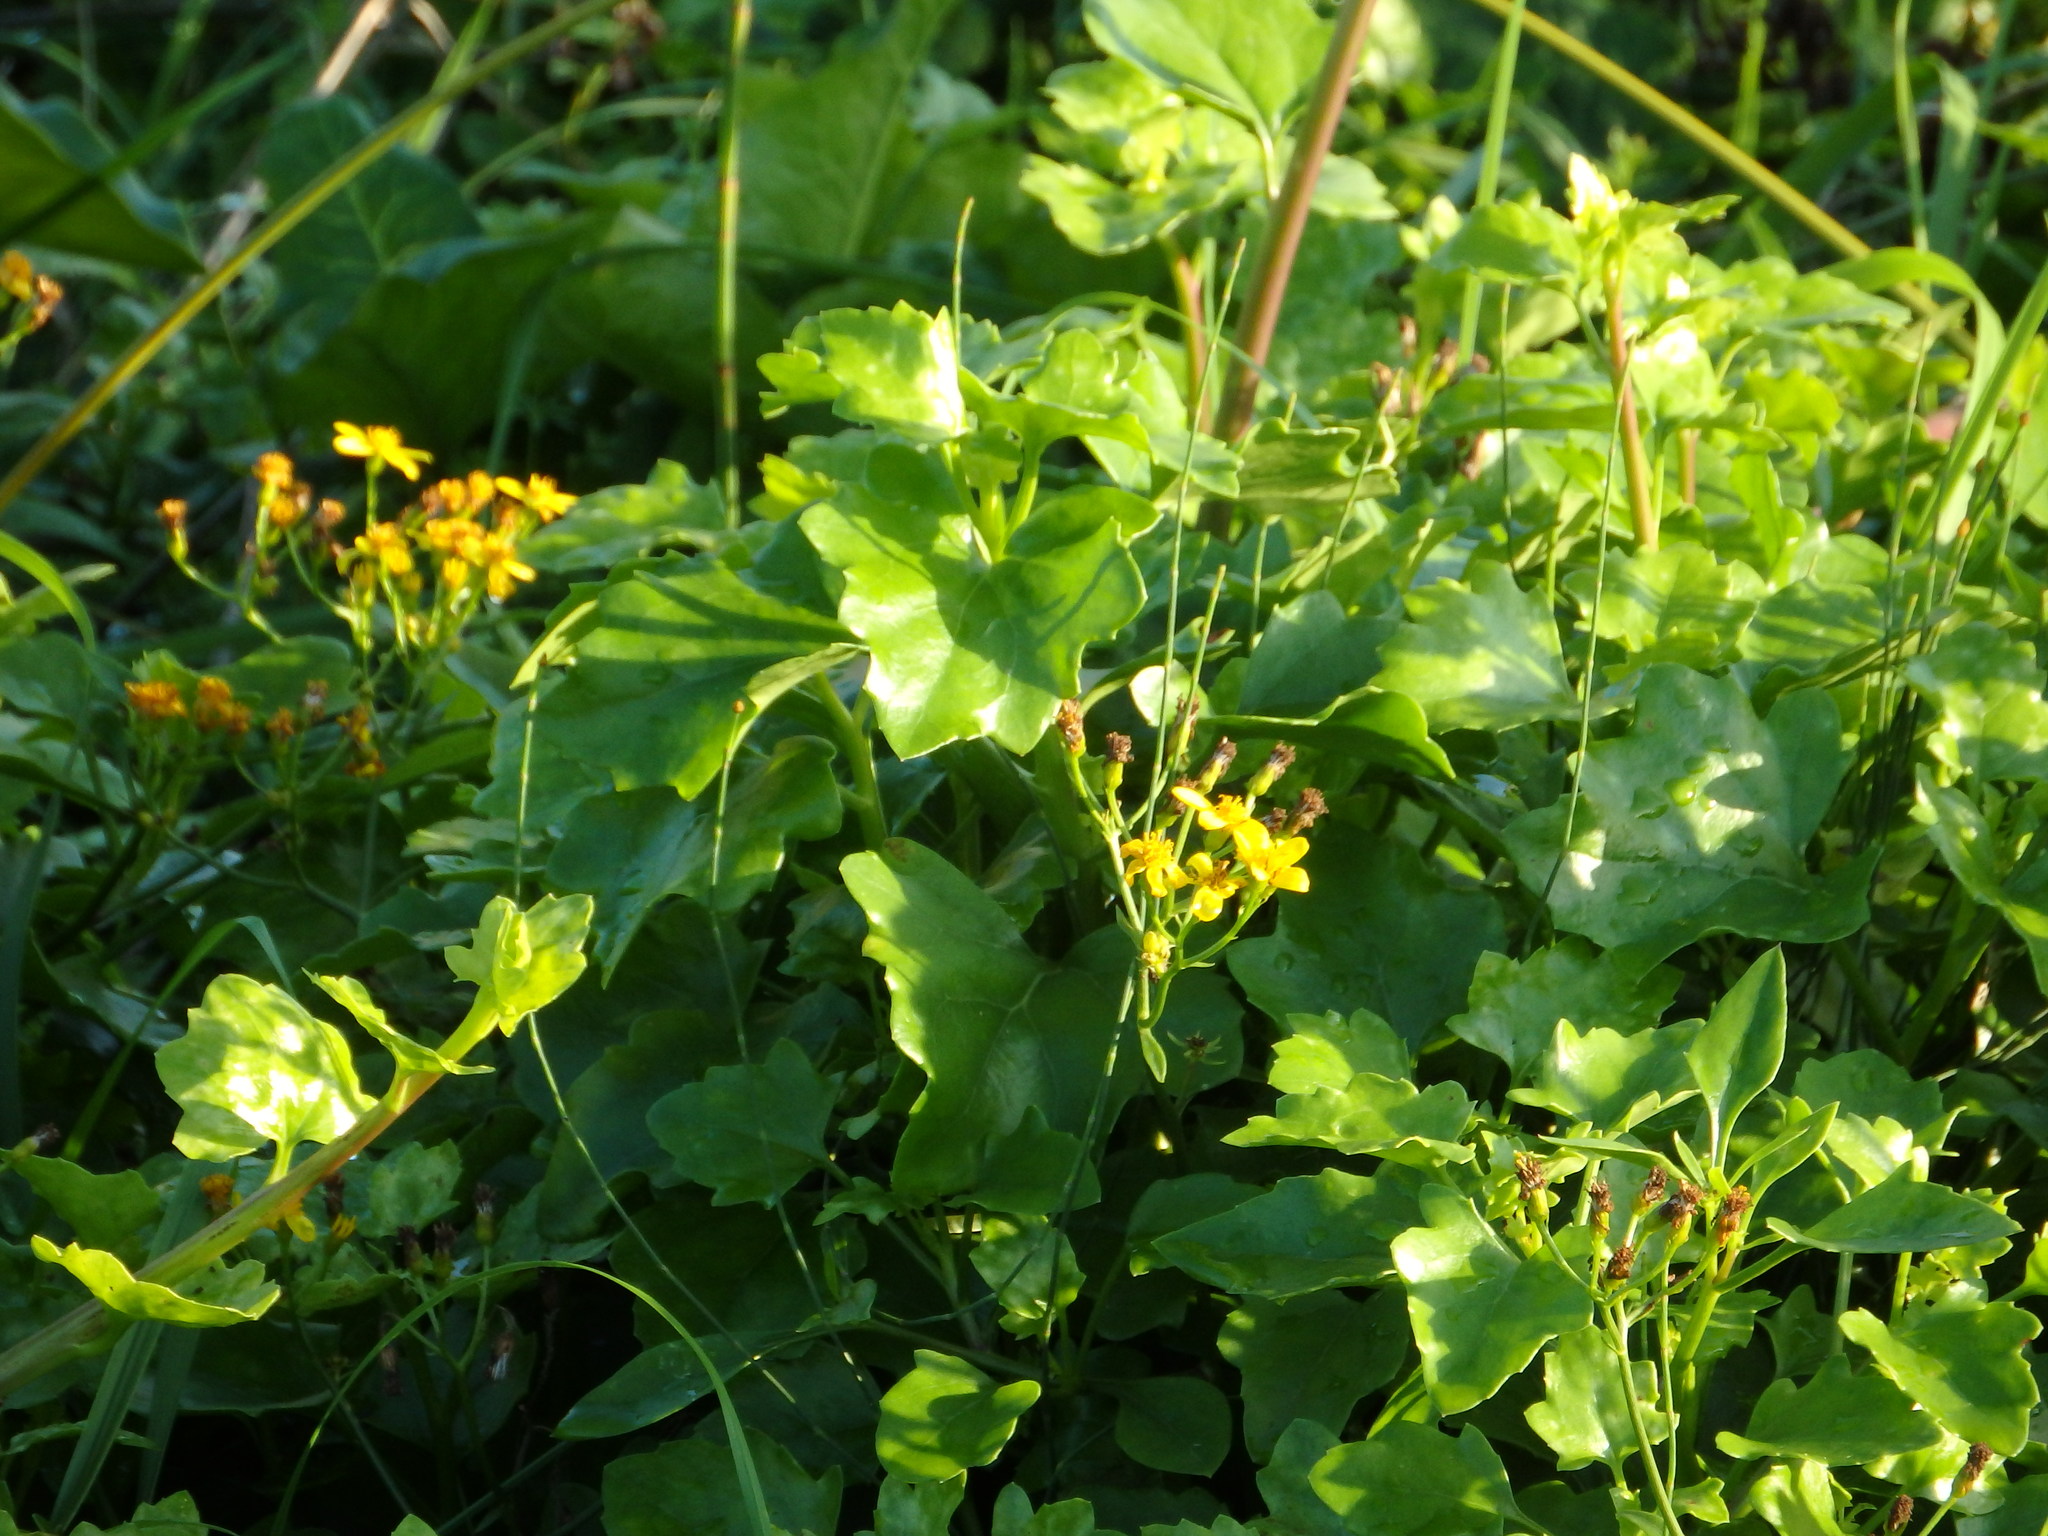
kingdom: Plantae
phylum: Tracheophyta
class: Magnoliopsida
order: Asterales
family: Asteraceae
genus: Senecio
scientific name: Senecio angulatus
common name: Climbing groundsel
